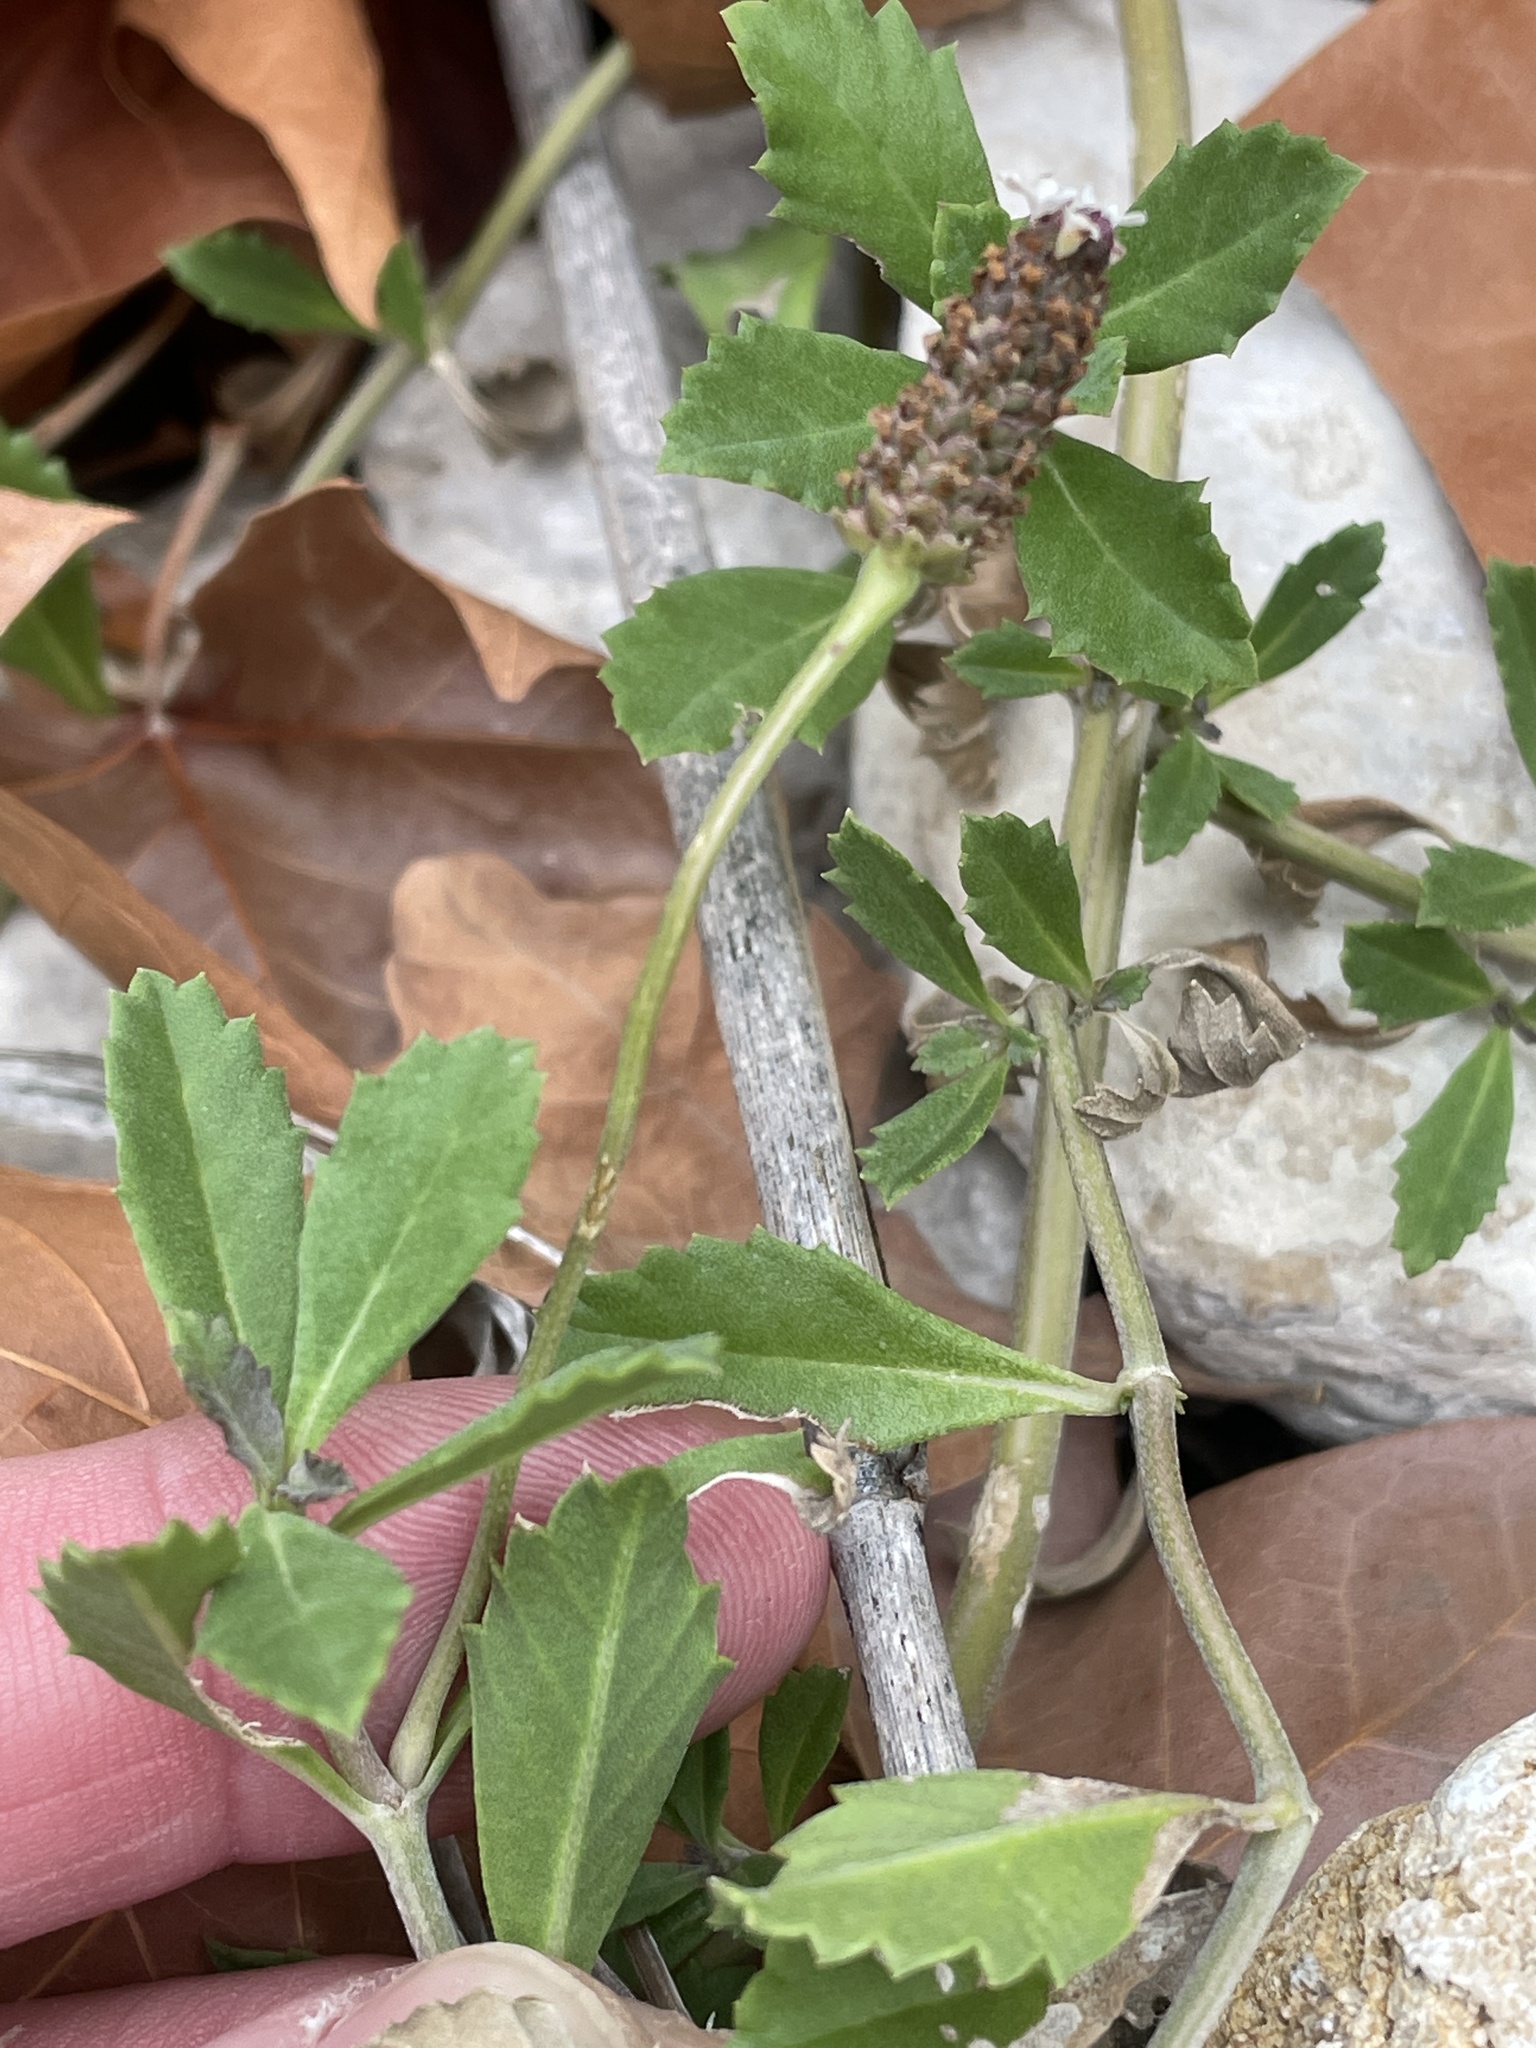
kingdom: Plantae
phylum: Tracheophyta
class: Magnoliopsida
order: Lamiales
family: Verbenaceae
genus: Phyla
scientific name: Phyla nodiflora
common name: Frogfruit
